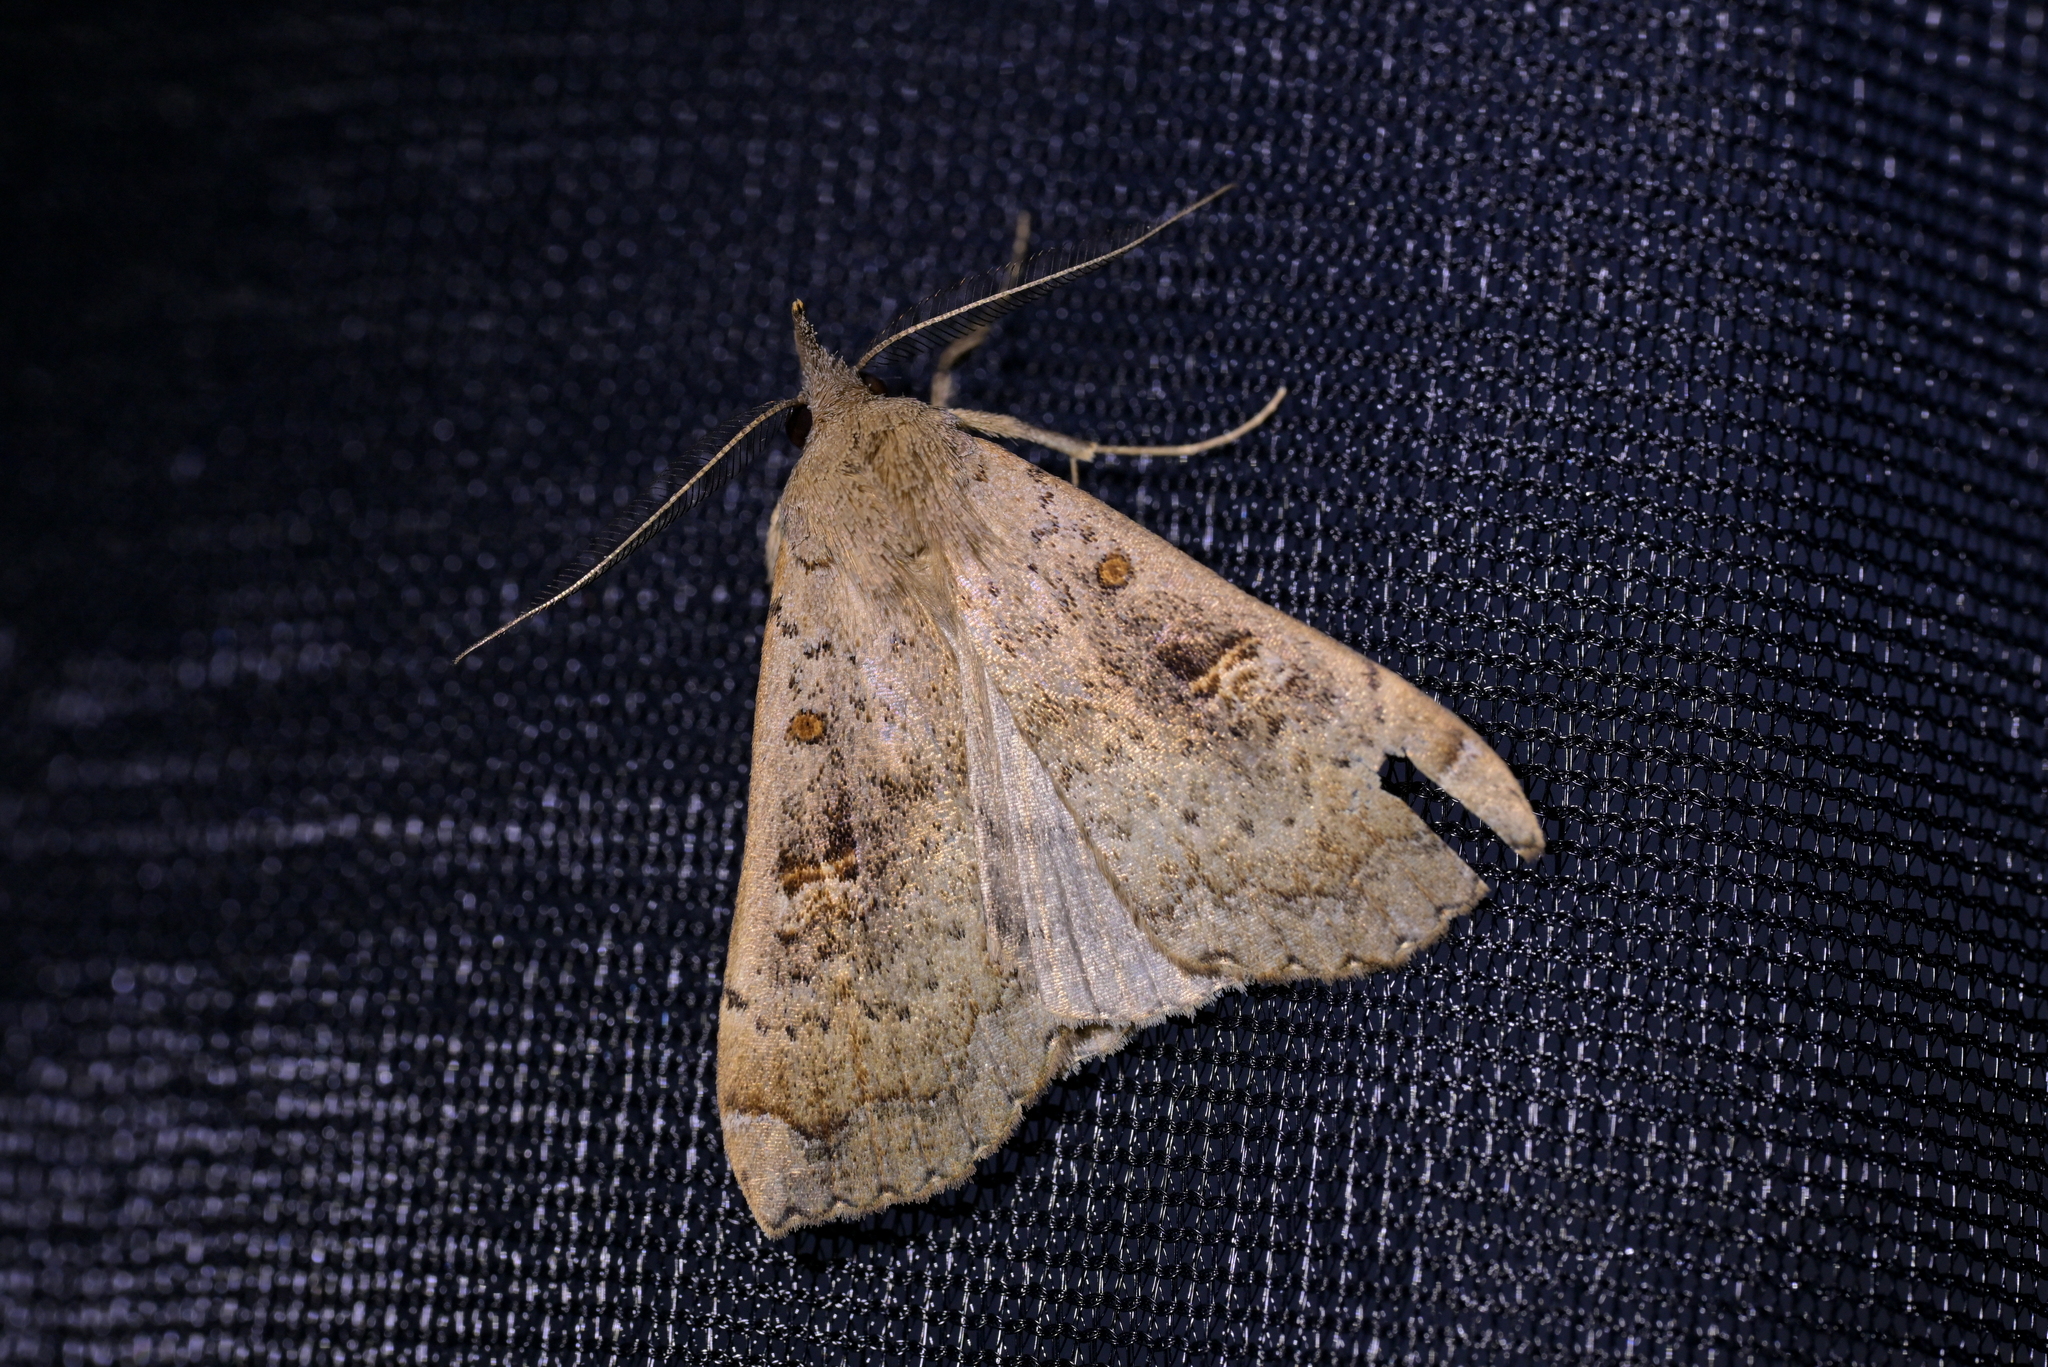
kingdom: Animalia
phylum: Arthropoda
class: Insecta
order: Lepidoptera
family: Erebidae
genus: Rhapsa
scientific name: Rhapsa scotosialis
